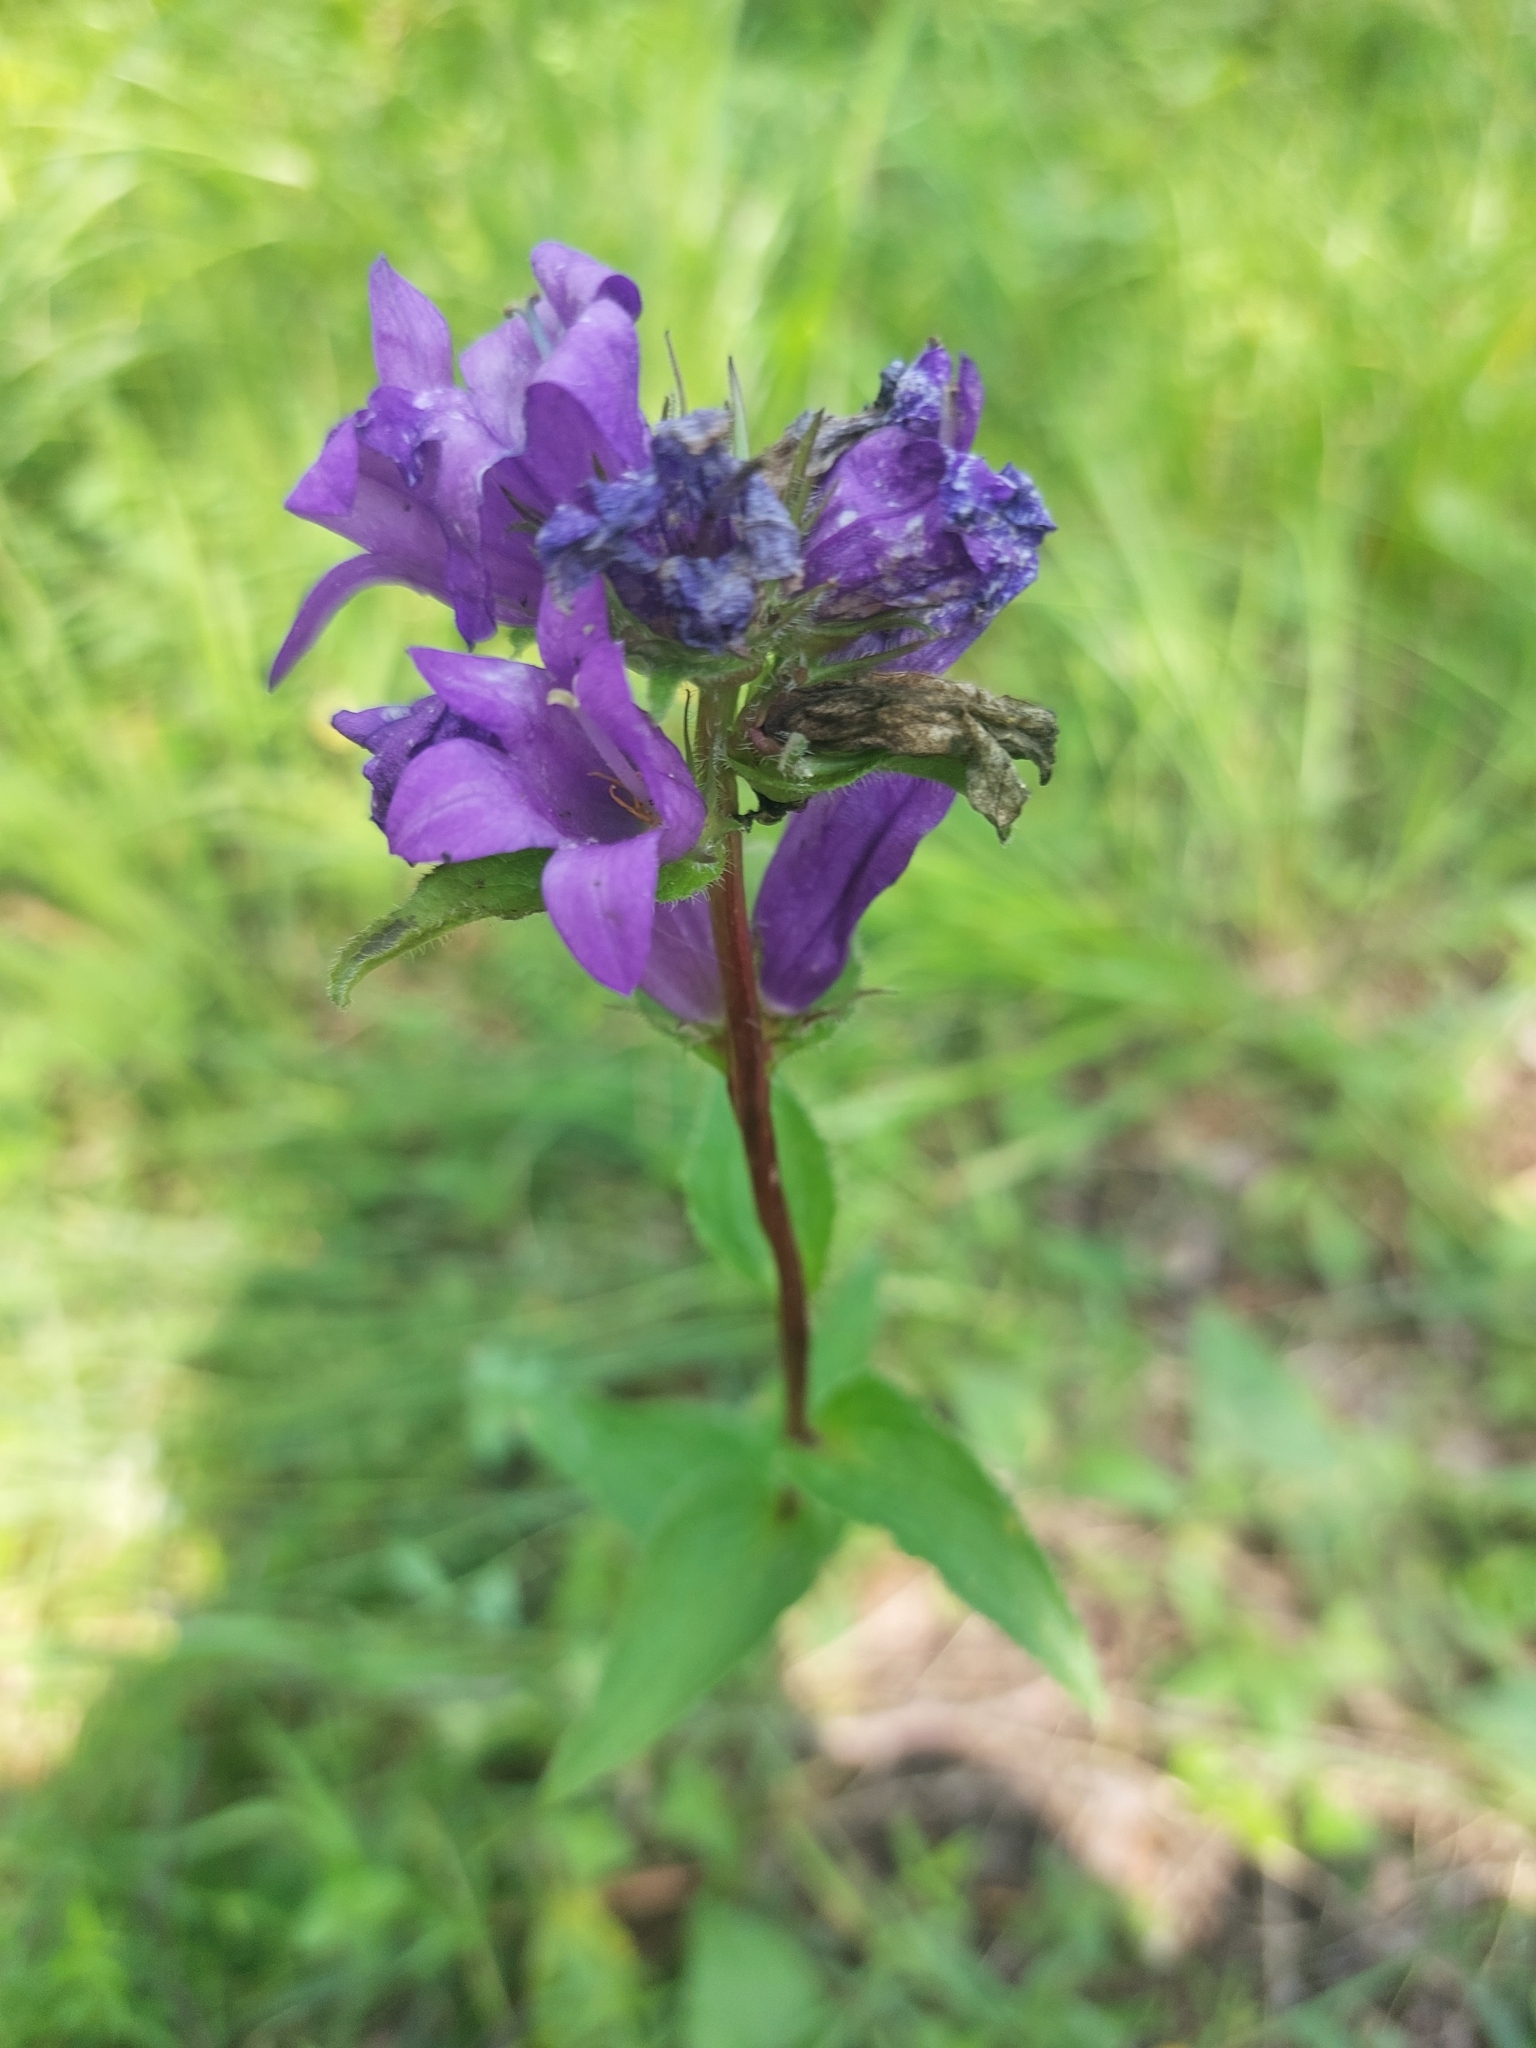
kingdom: Plantae
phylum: Tracheophyta
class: Magnoliopsida
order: Asterales
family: Campanulaceae
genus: Campanula
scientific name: Campanula glomerata
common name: Clustered bellflower
